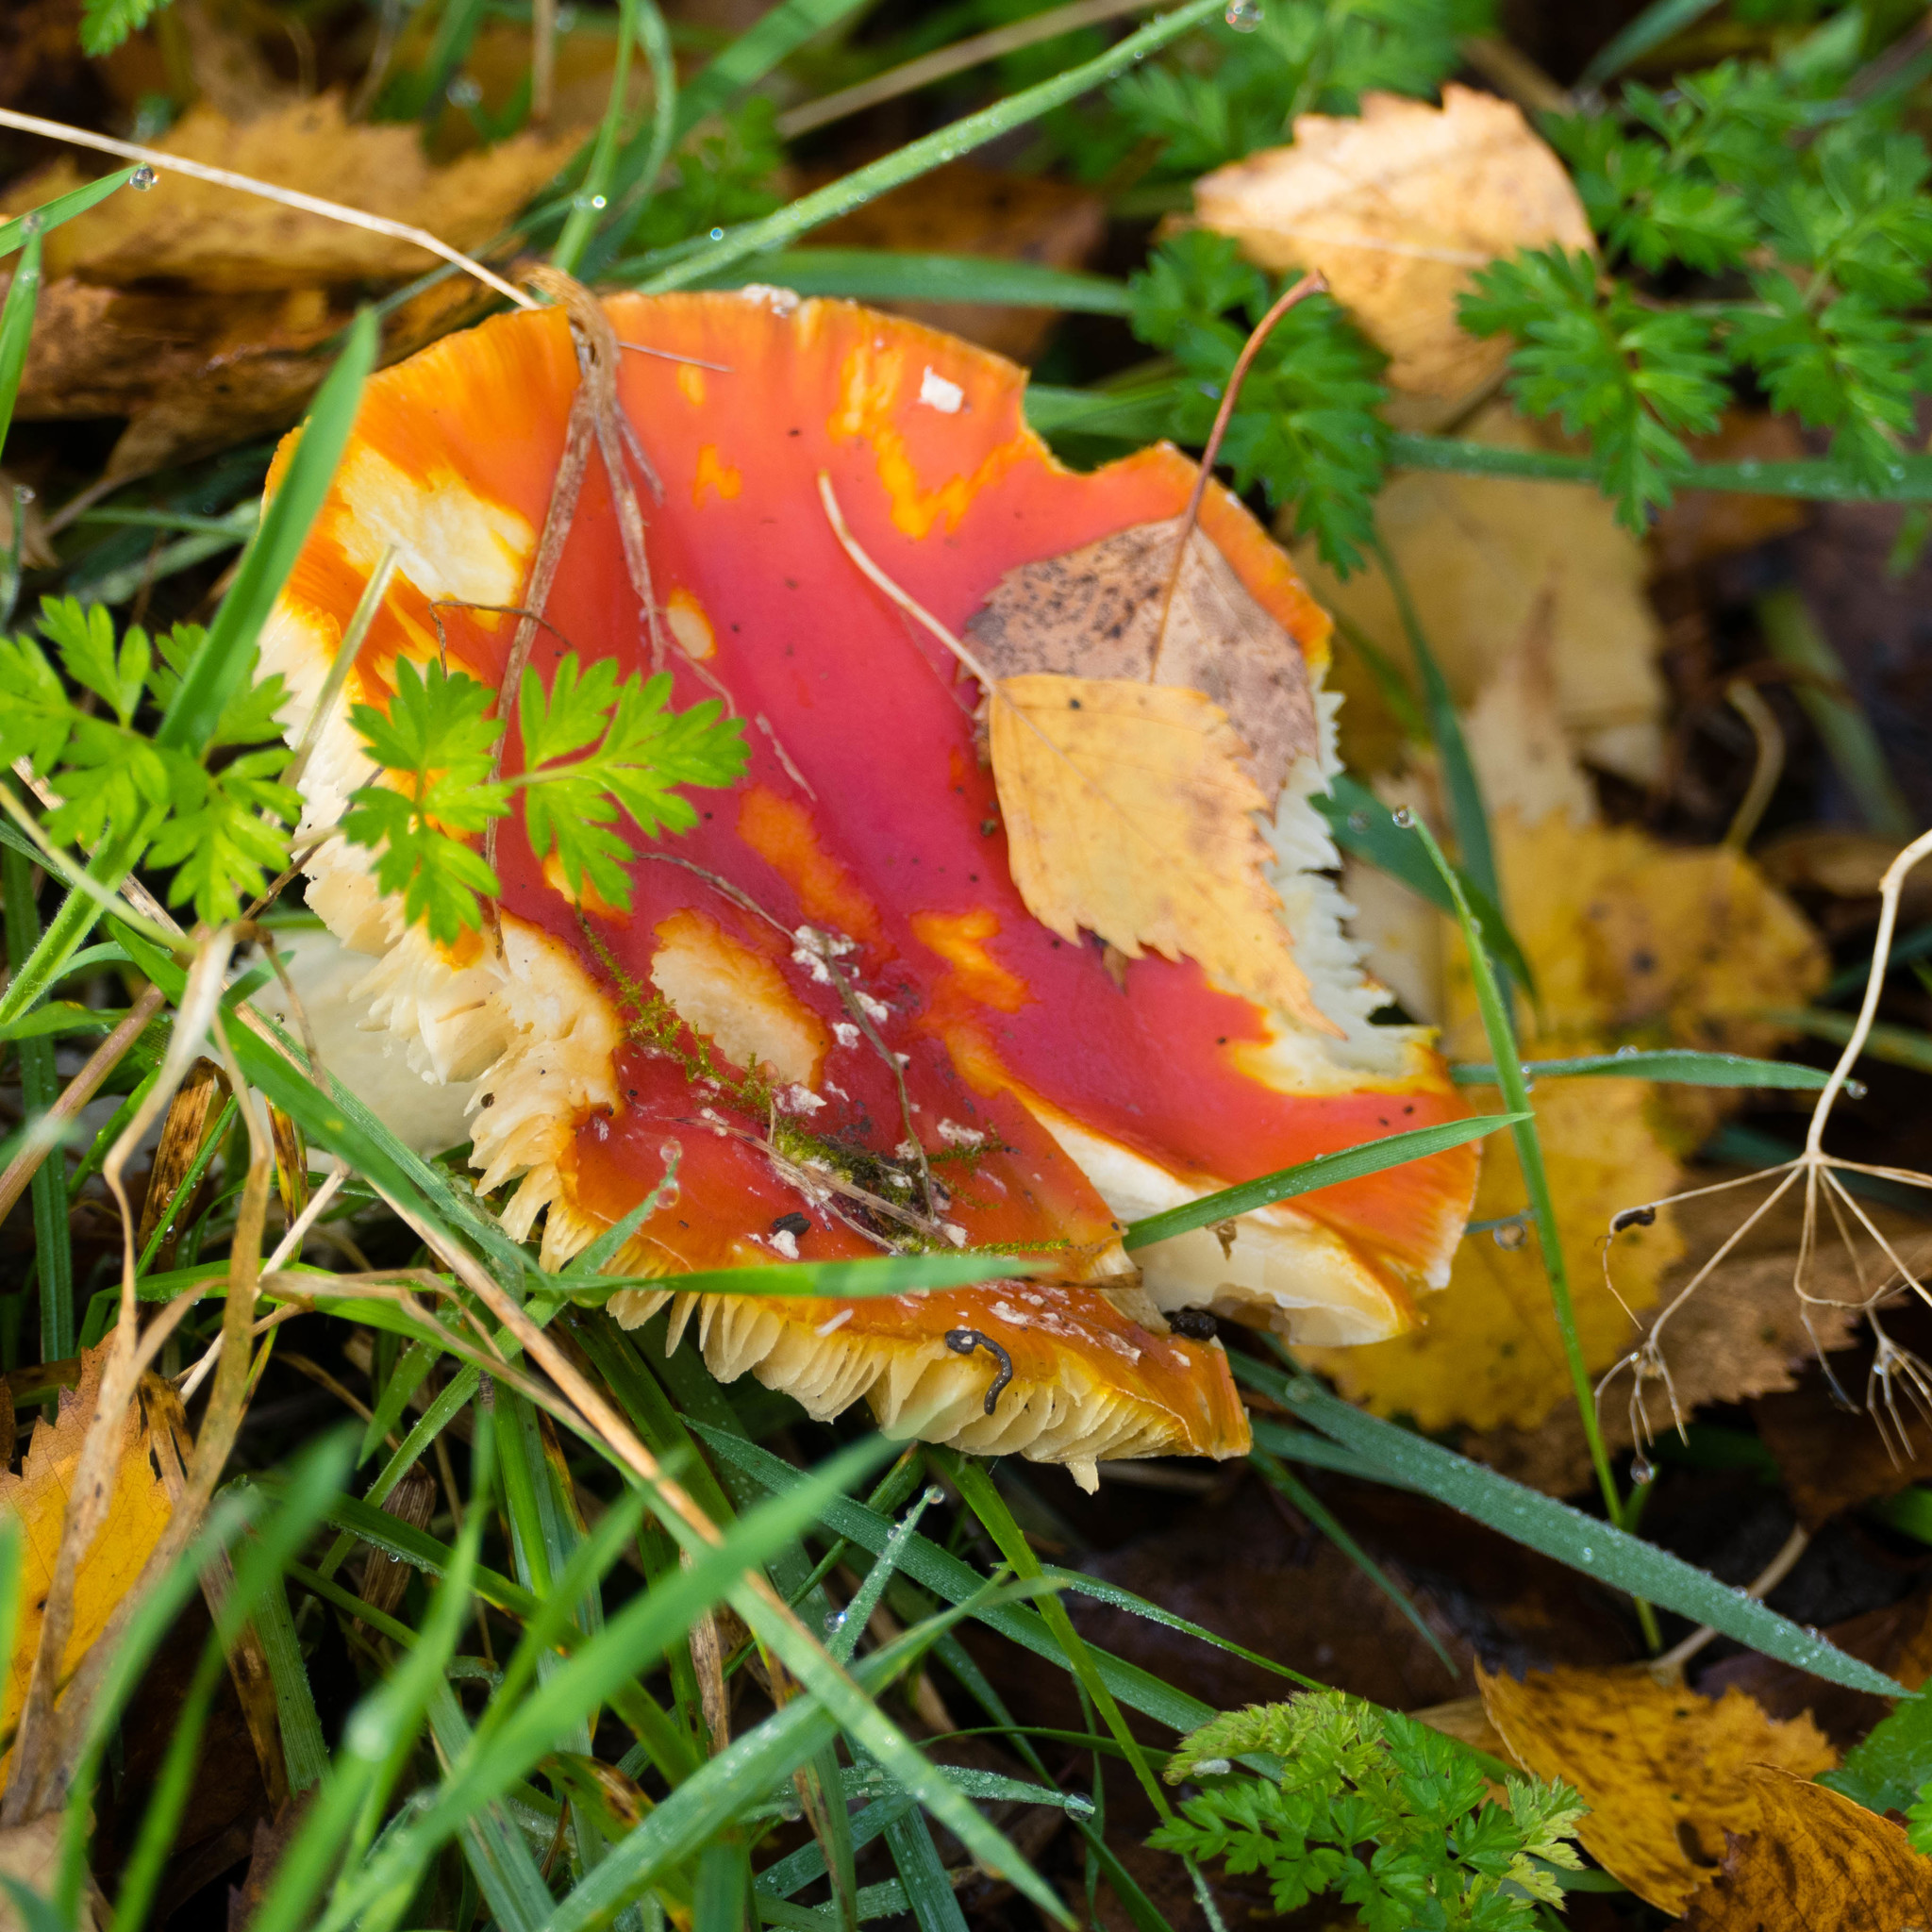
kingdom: Fungi
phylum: Basidiomycota
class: Agaricomycetes
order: Agaricales
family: Amanitaceae
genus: Amanita
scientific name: Amanita muscaria
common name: Fly agaric
